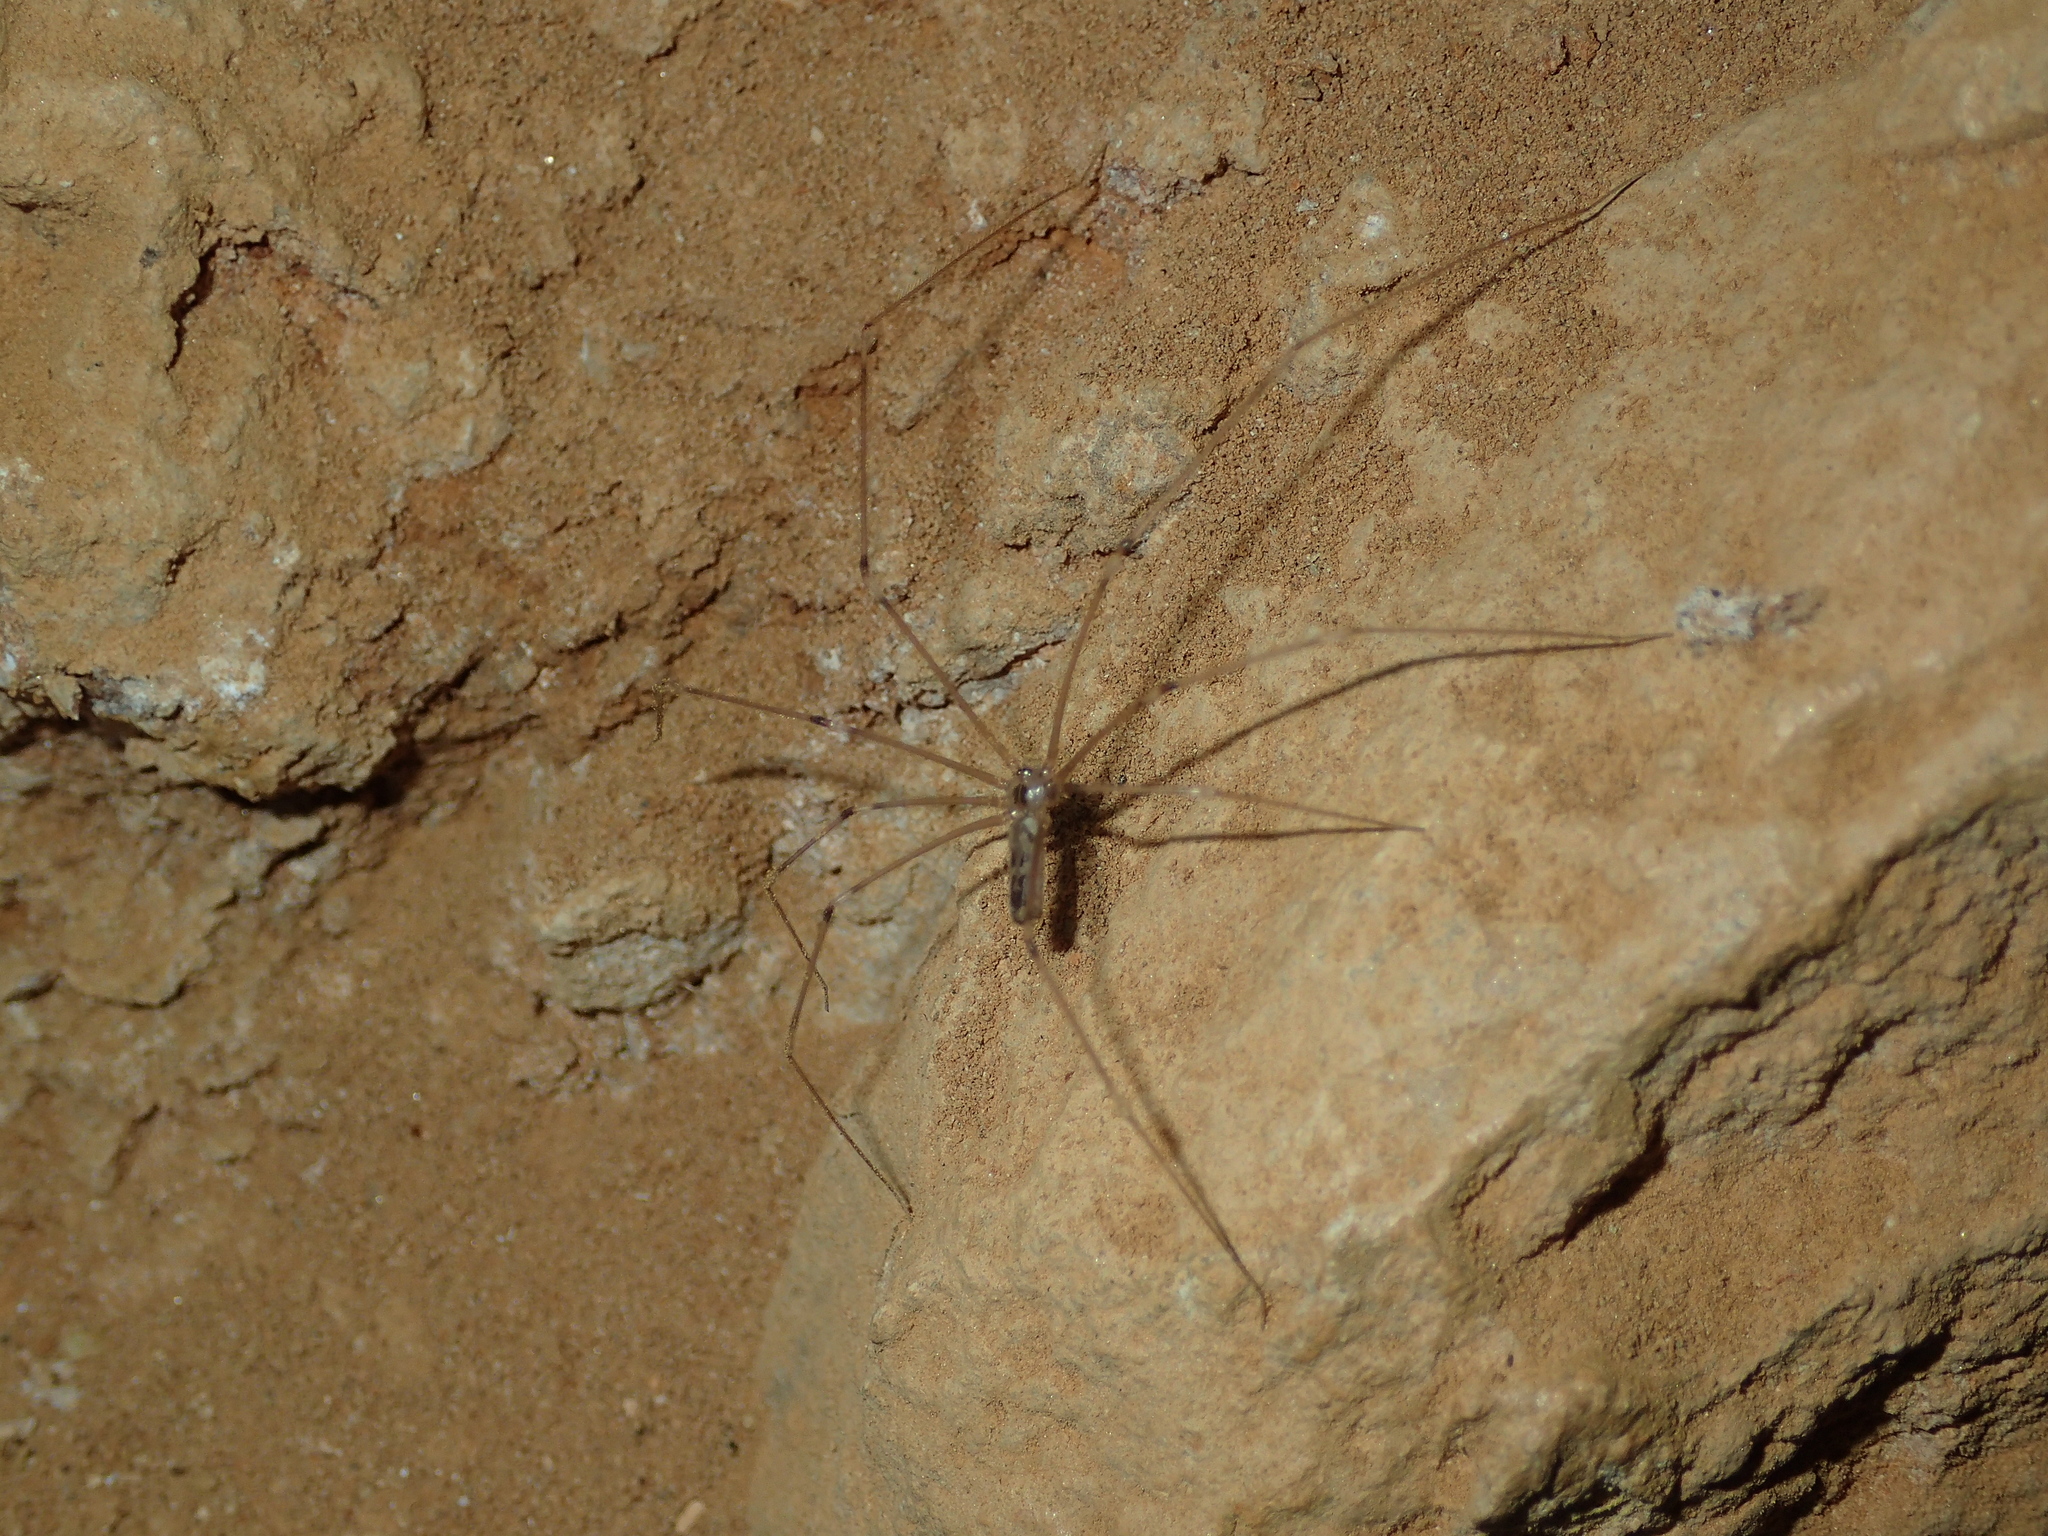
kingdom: Animalia
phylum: Arthropoda
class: Arachnida
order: Araneae
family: Pholcidae
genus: Pholcus
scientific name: Pholcus phalangioides
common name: Longbodied cellar spider
